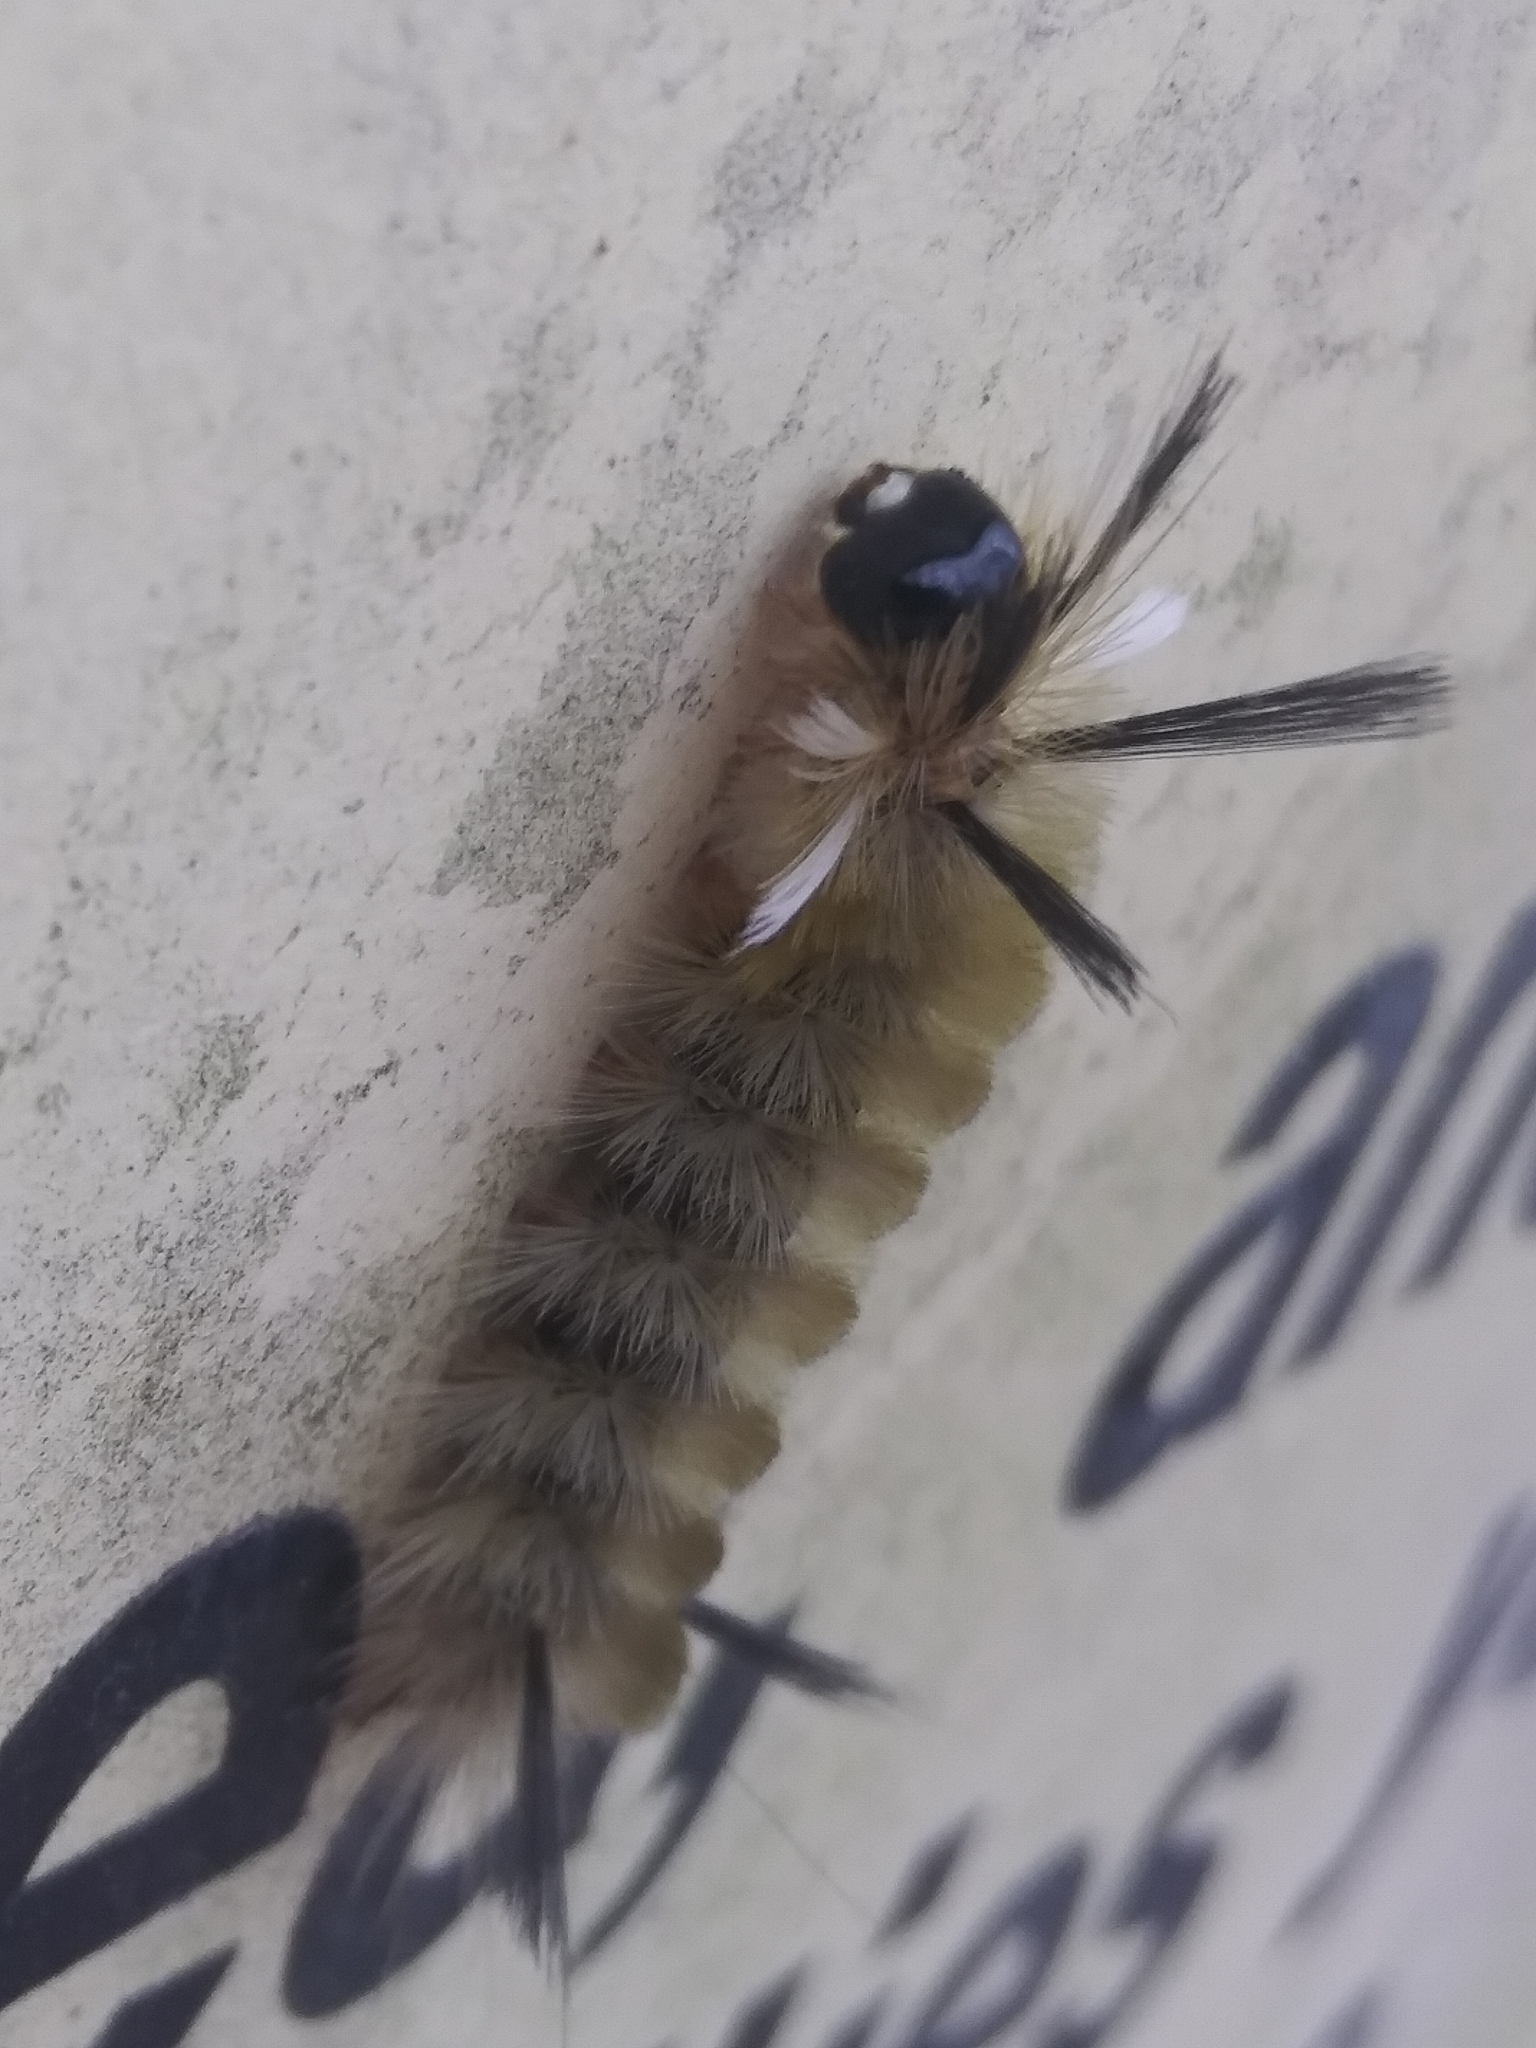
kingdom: Animalia
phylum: Arthropoda
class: Insecta
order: Lepidoptera
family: Erebidae
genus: Halysidota
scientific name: Halysidota tessellaris
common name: Banded tussock moth
